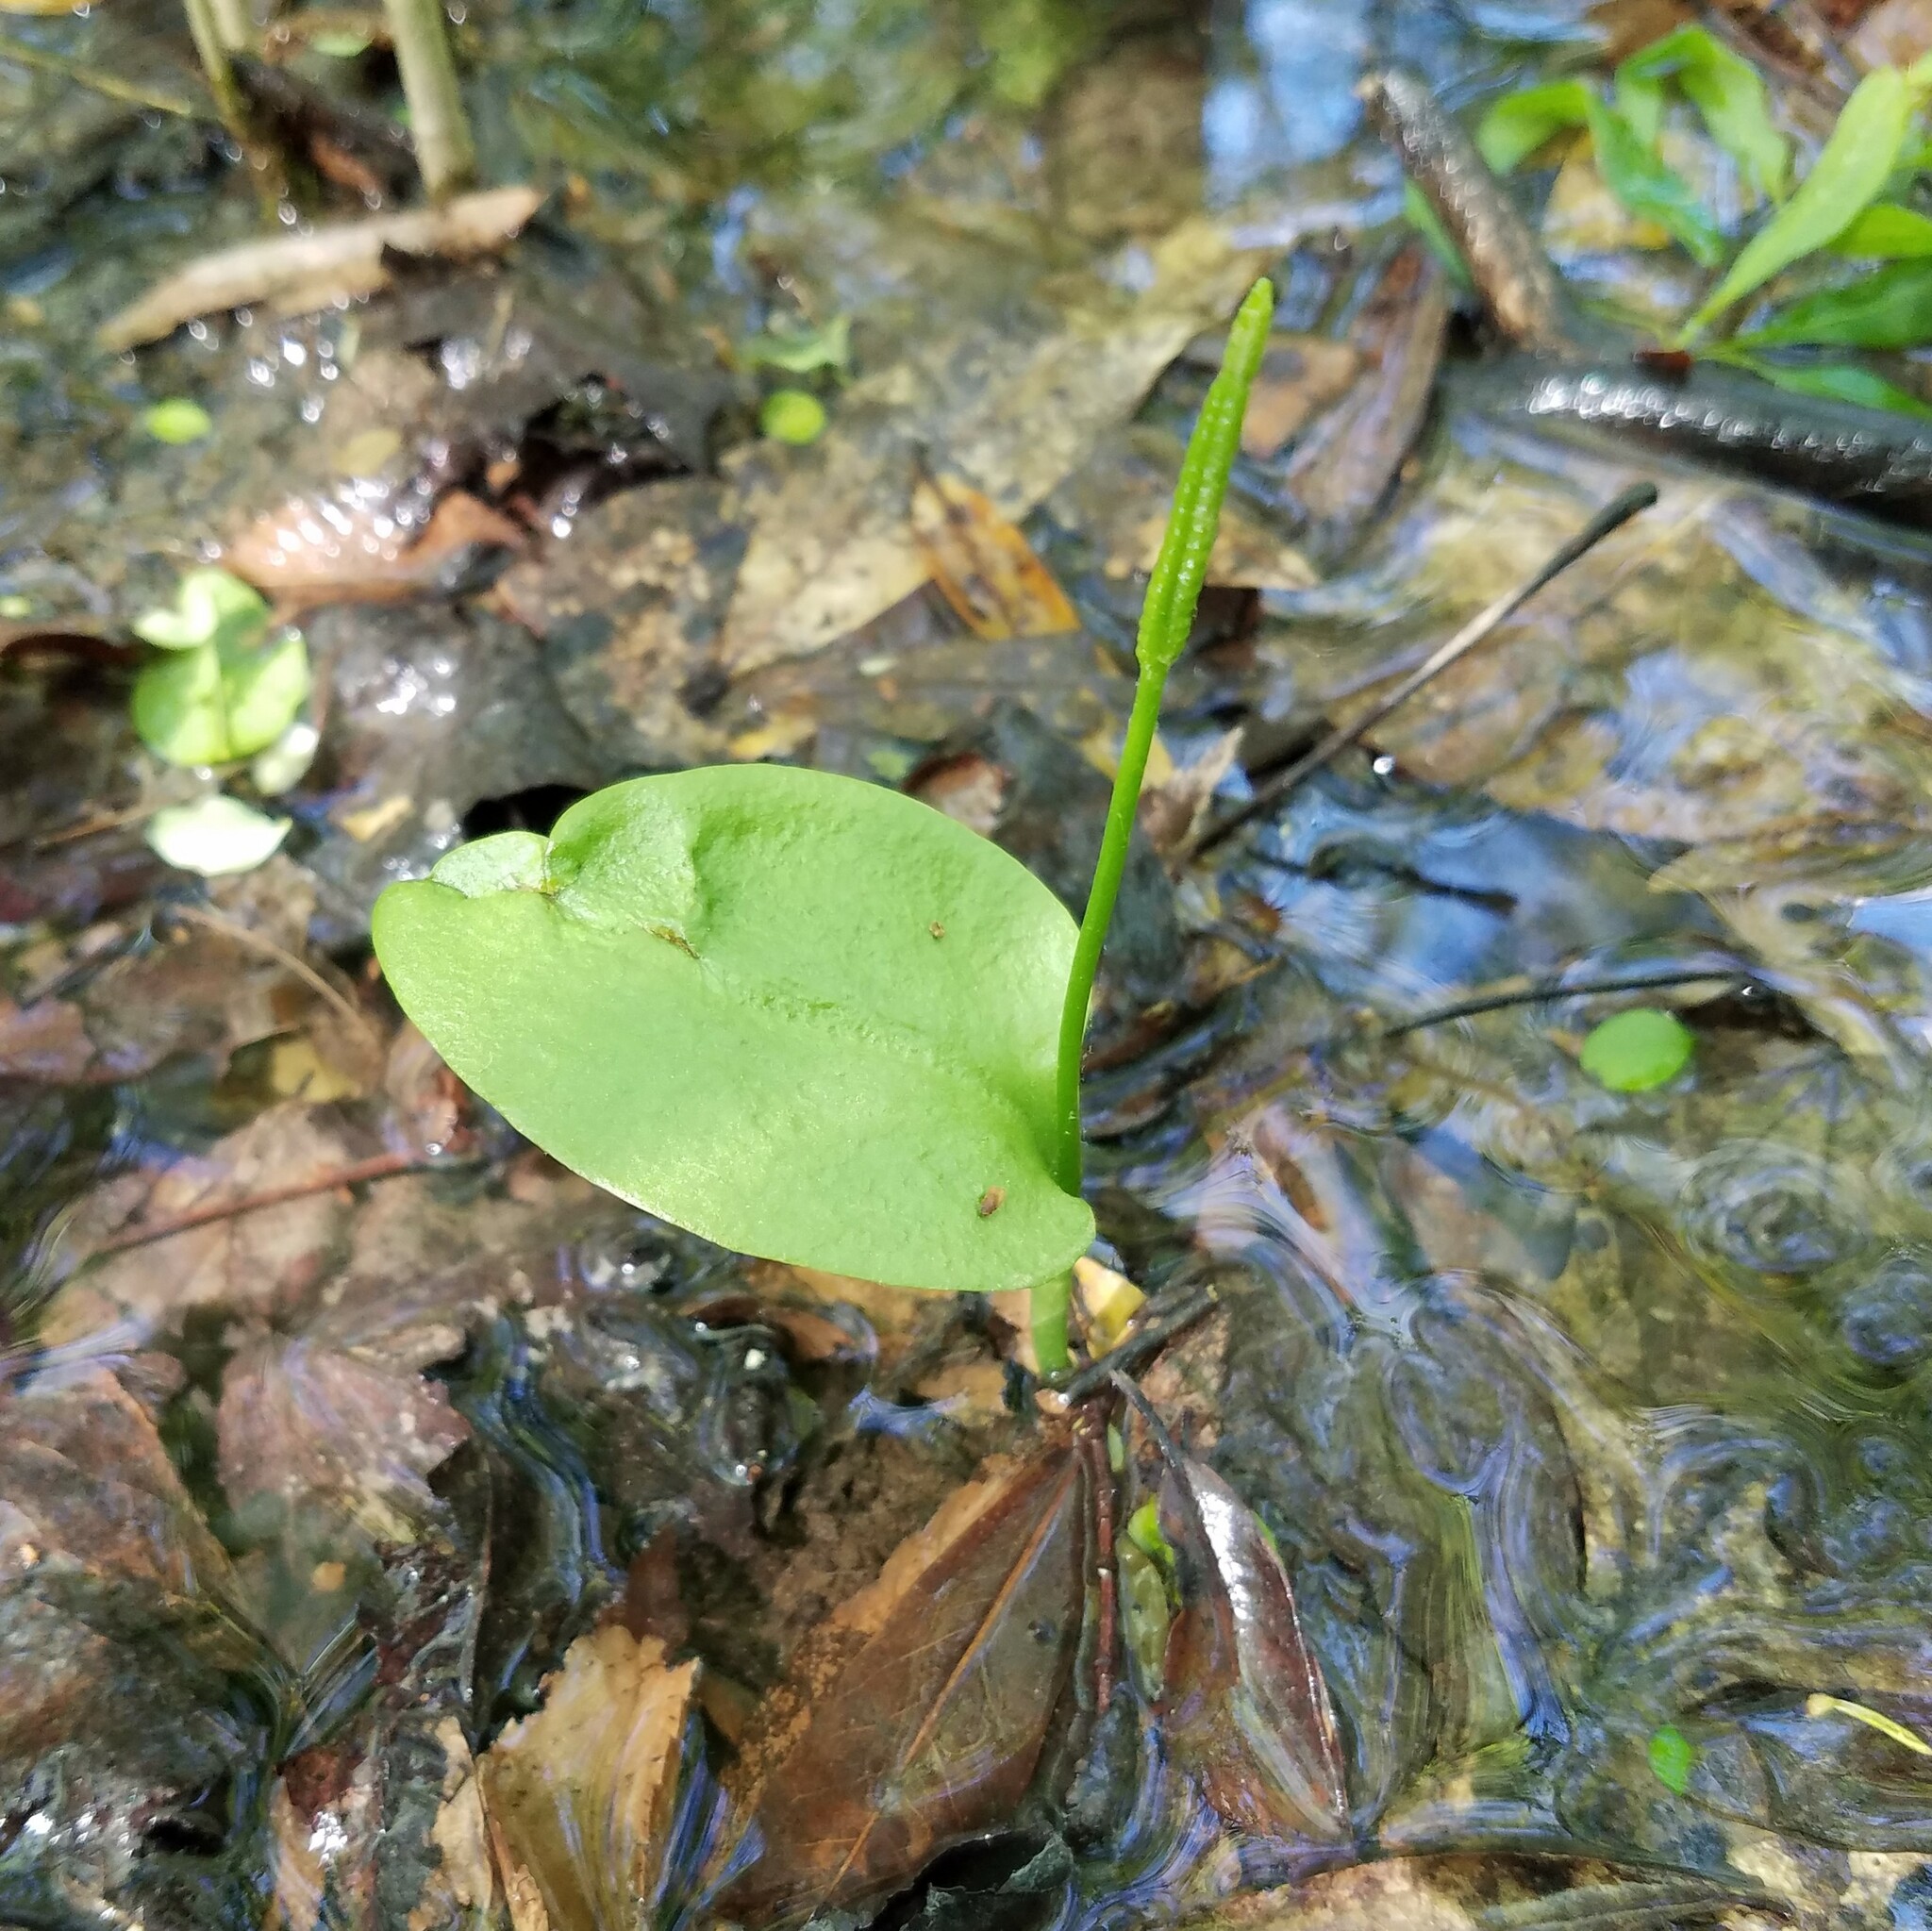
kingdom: Plantae
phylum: Tracheophyta
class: Polypodiopsida
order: Ophioglossales
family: Ophioglossaceae
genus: Ophioglossum
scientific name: Ophioglossum vulgatum
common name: Adder's-tongue
